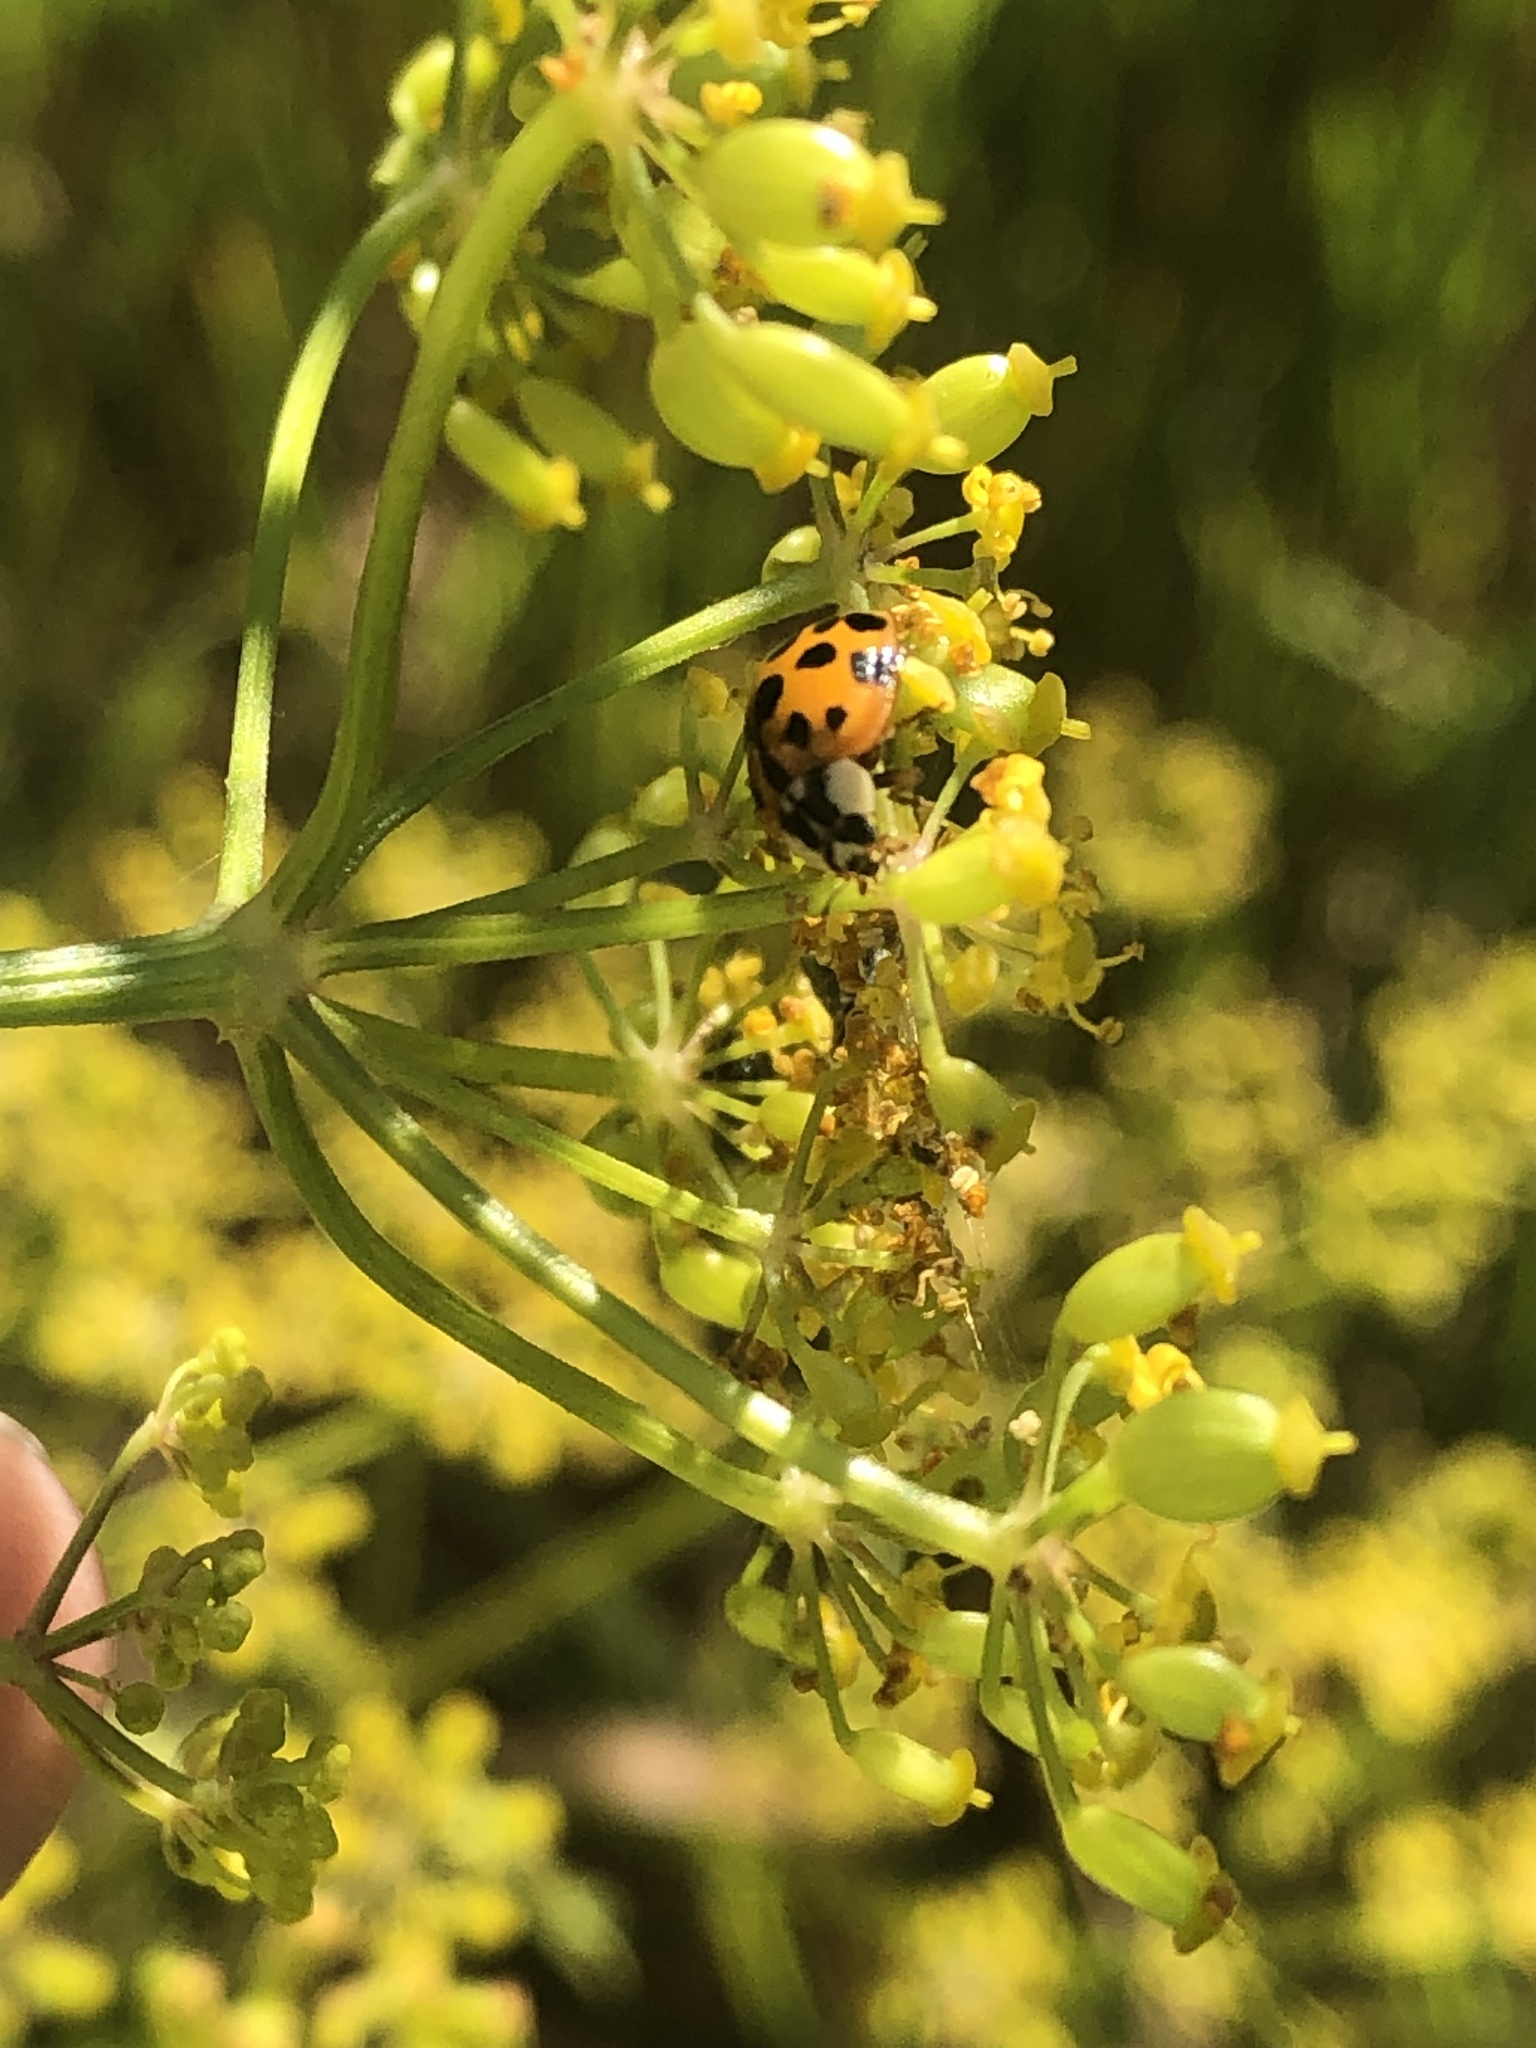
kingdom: Animalia
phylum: Arthropoda
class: Insecta
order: Coleoptera
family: Coccinellidae
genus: Harmonia
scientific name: Harmonia axyridis
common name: Harlequin ladybird
